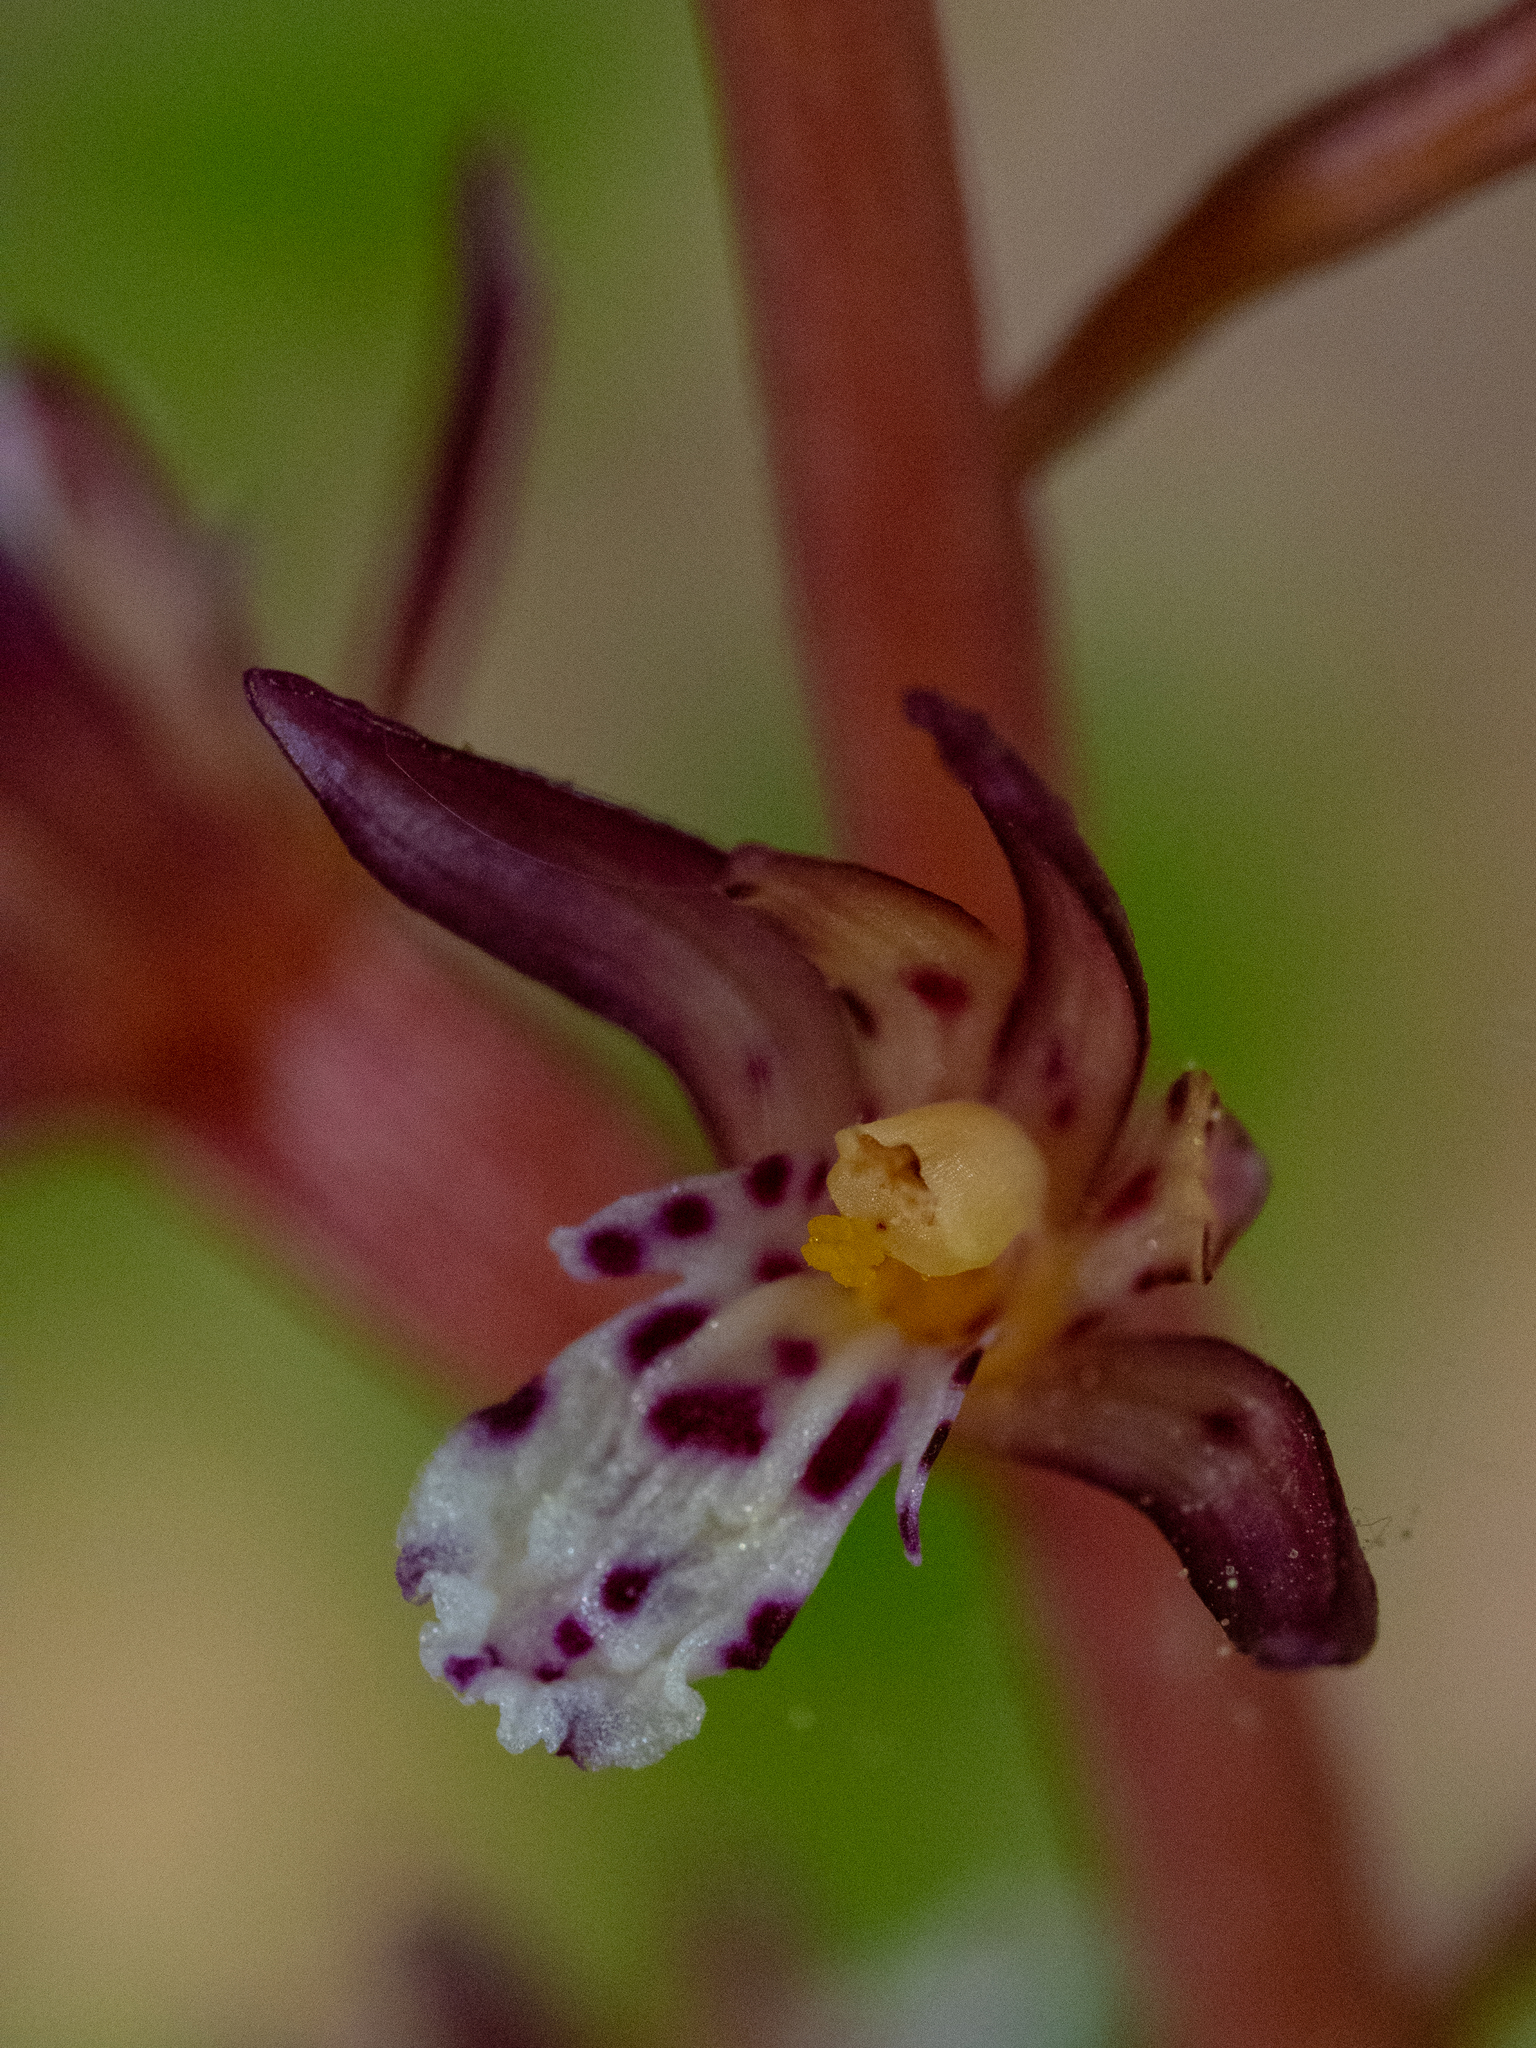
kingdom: Plantae
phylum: Tracheophyta
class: Liliopsida
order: Asparagales
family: Orchidaceae
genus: Corallorhiza
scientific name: Corallorhiza maculata
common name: Spotted coralroot
